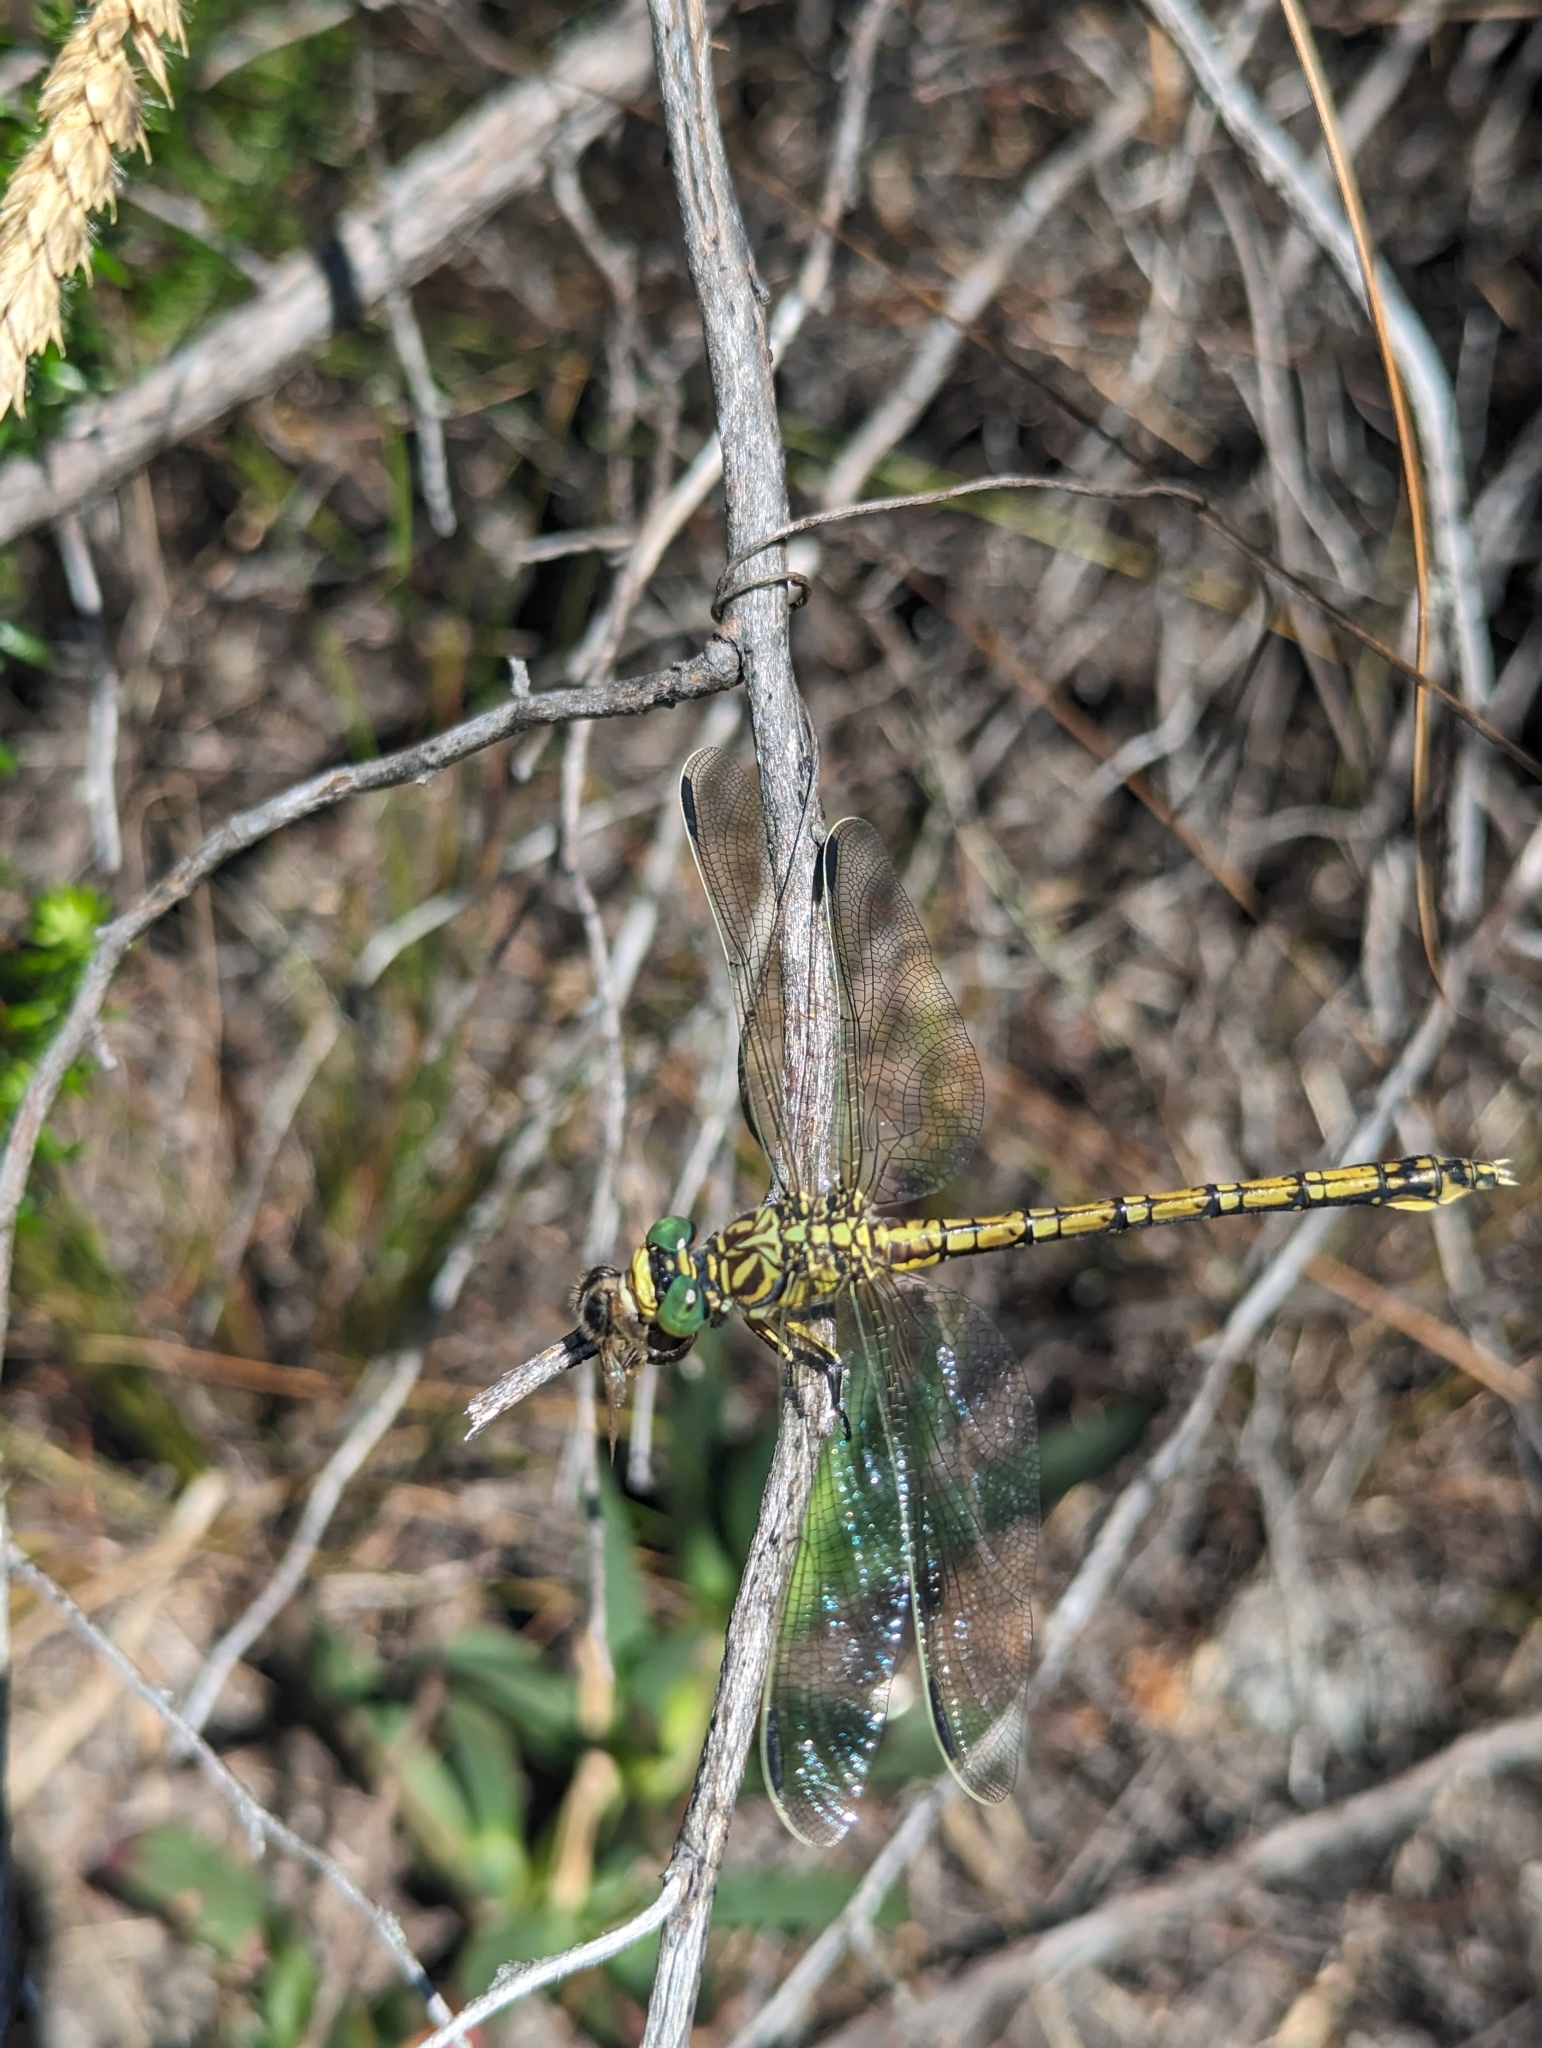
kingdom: Animalia
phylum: Arthropoda
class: Insecta
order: Odonata
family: Gomphidae
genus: Ceratogomphus
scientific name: Ceratogomphus pictus
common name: Common thorntail
